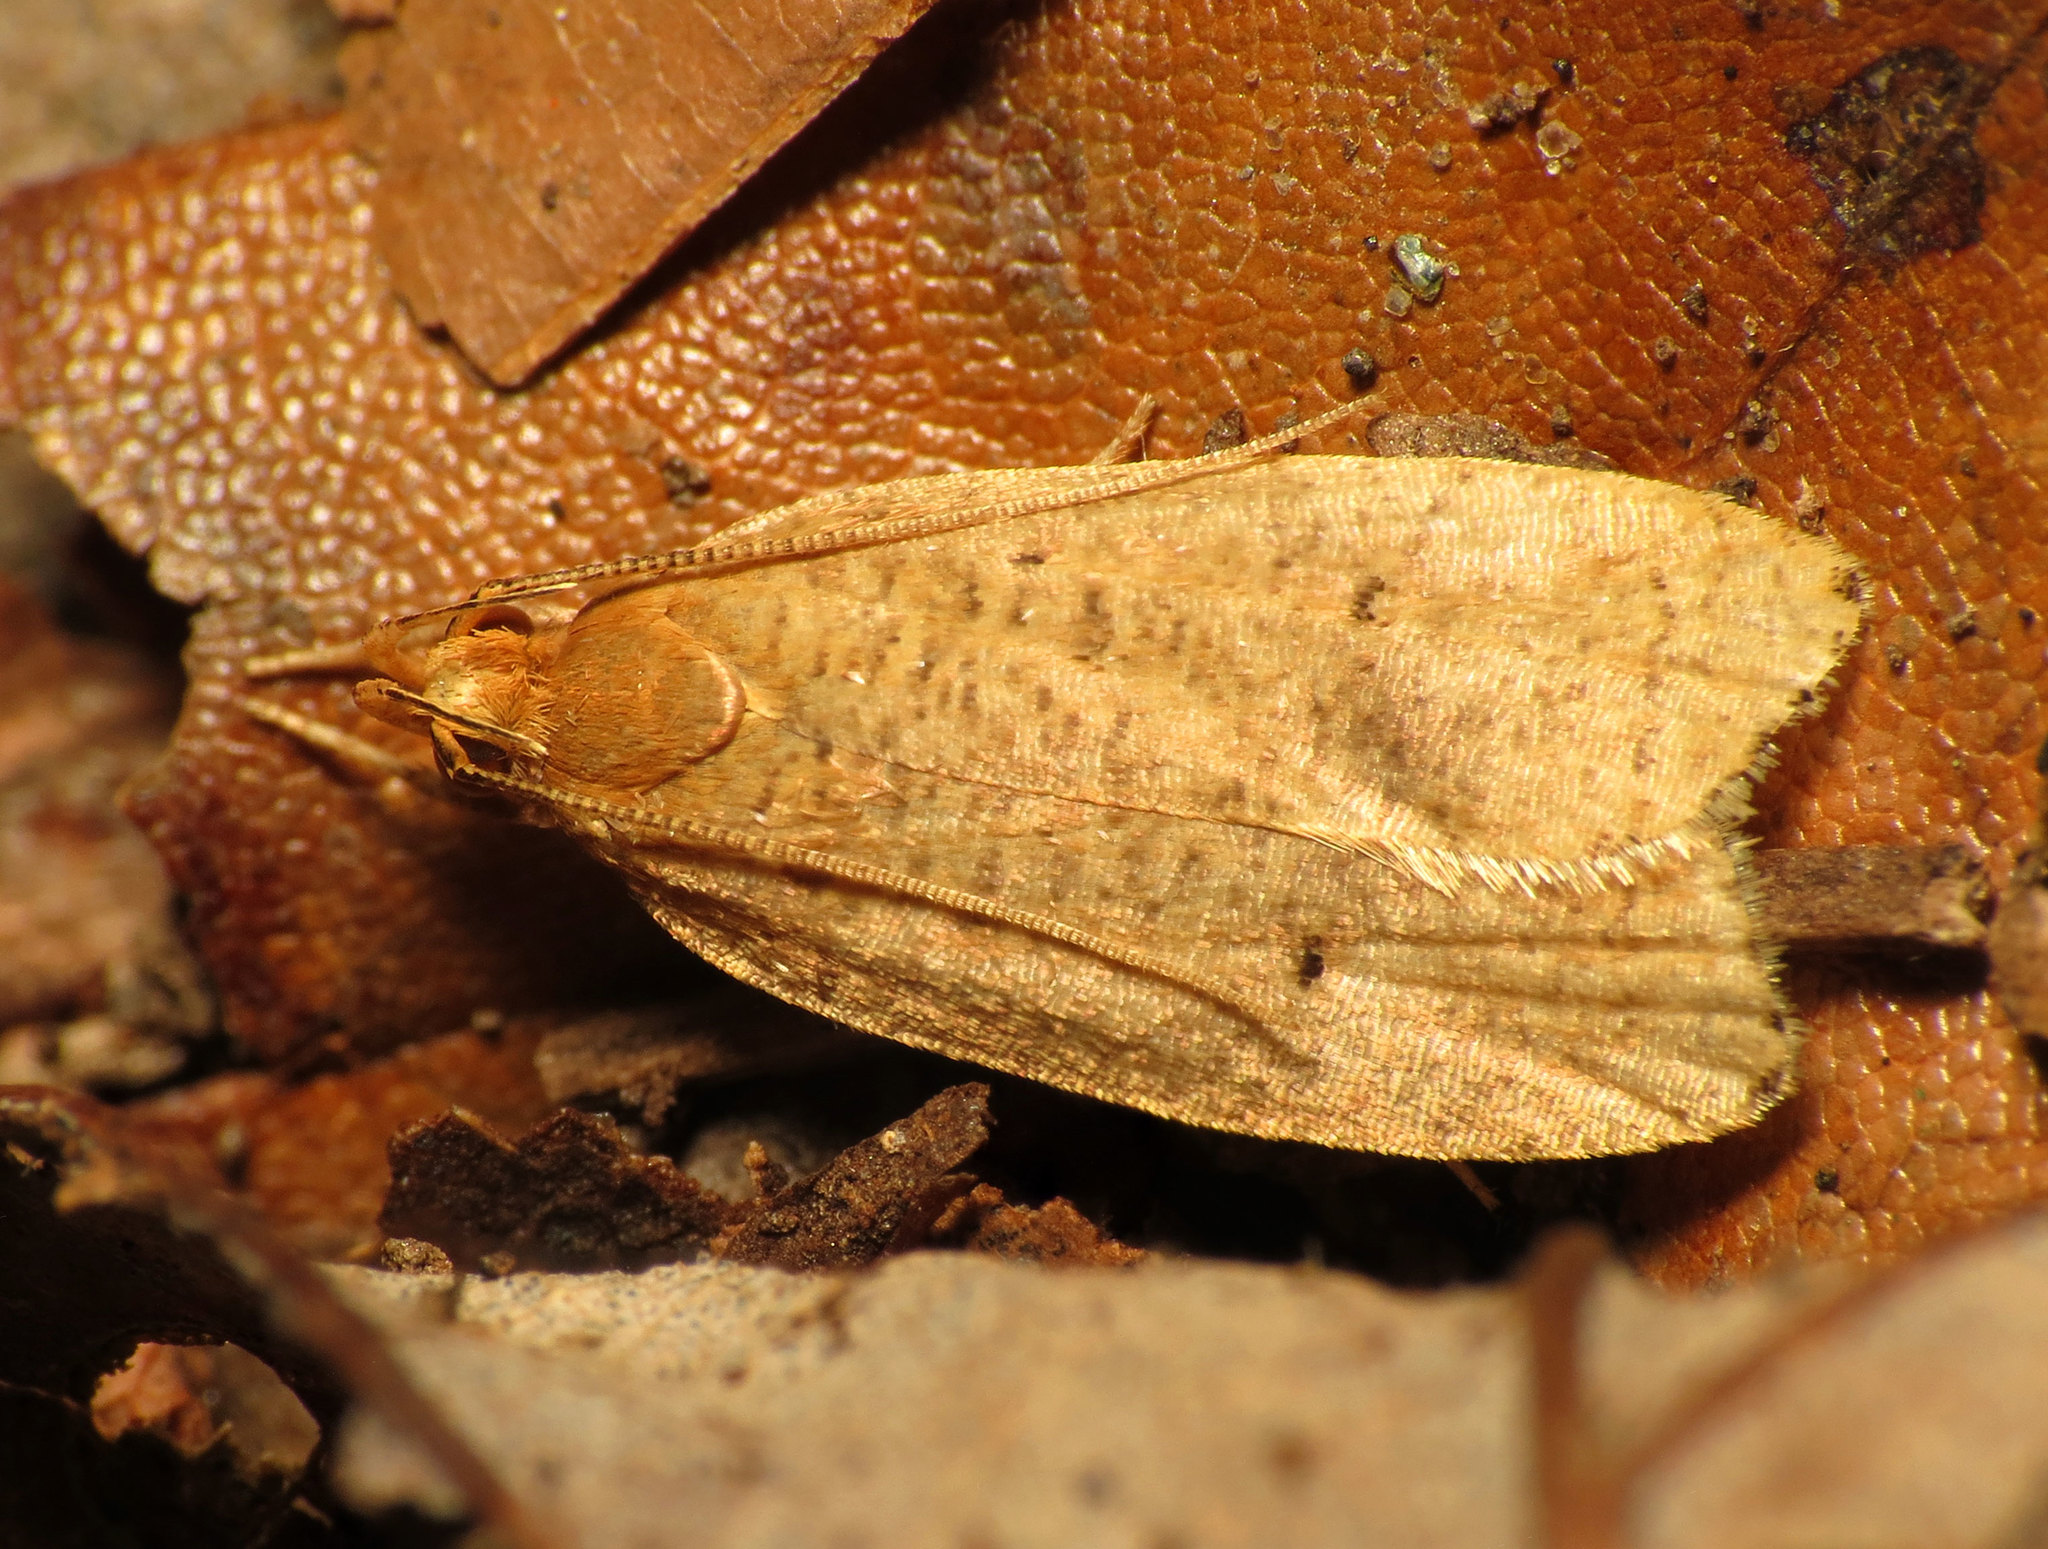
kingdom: Animalia
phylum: Arthropoda
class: Insecta
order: Lepidoptera
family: Depressariidae
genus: Psilocorsis
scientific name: Psilocorsis reflexella
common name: Dotted leaftier moth
